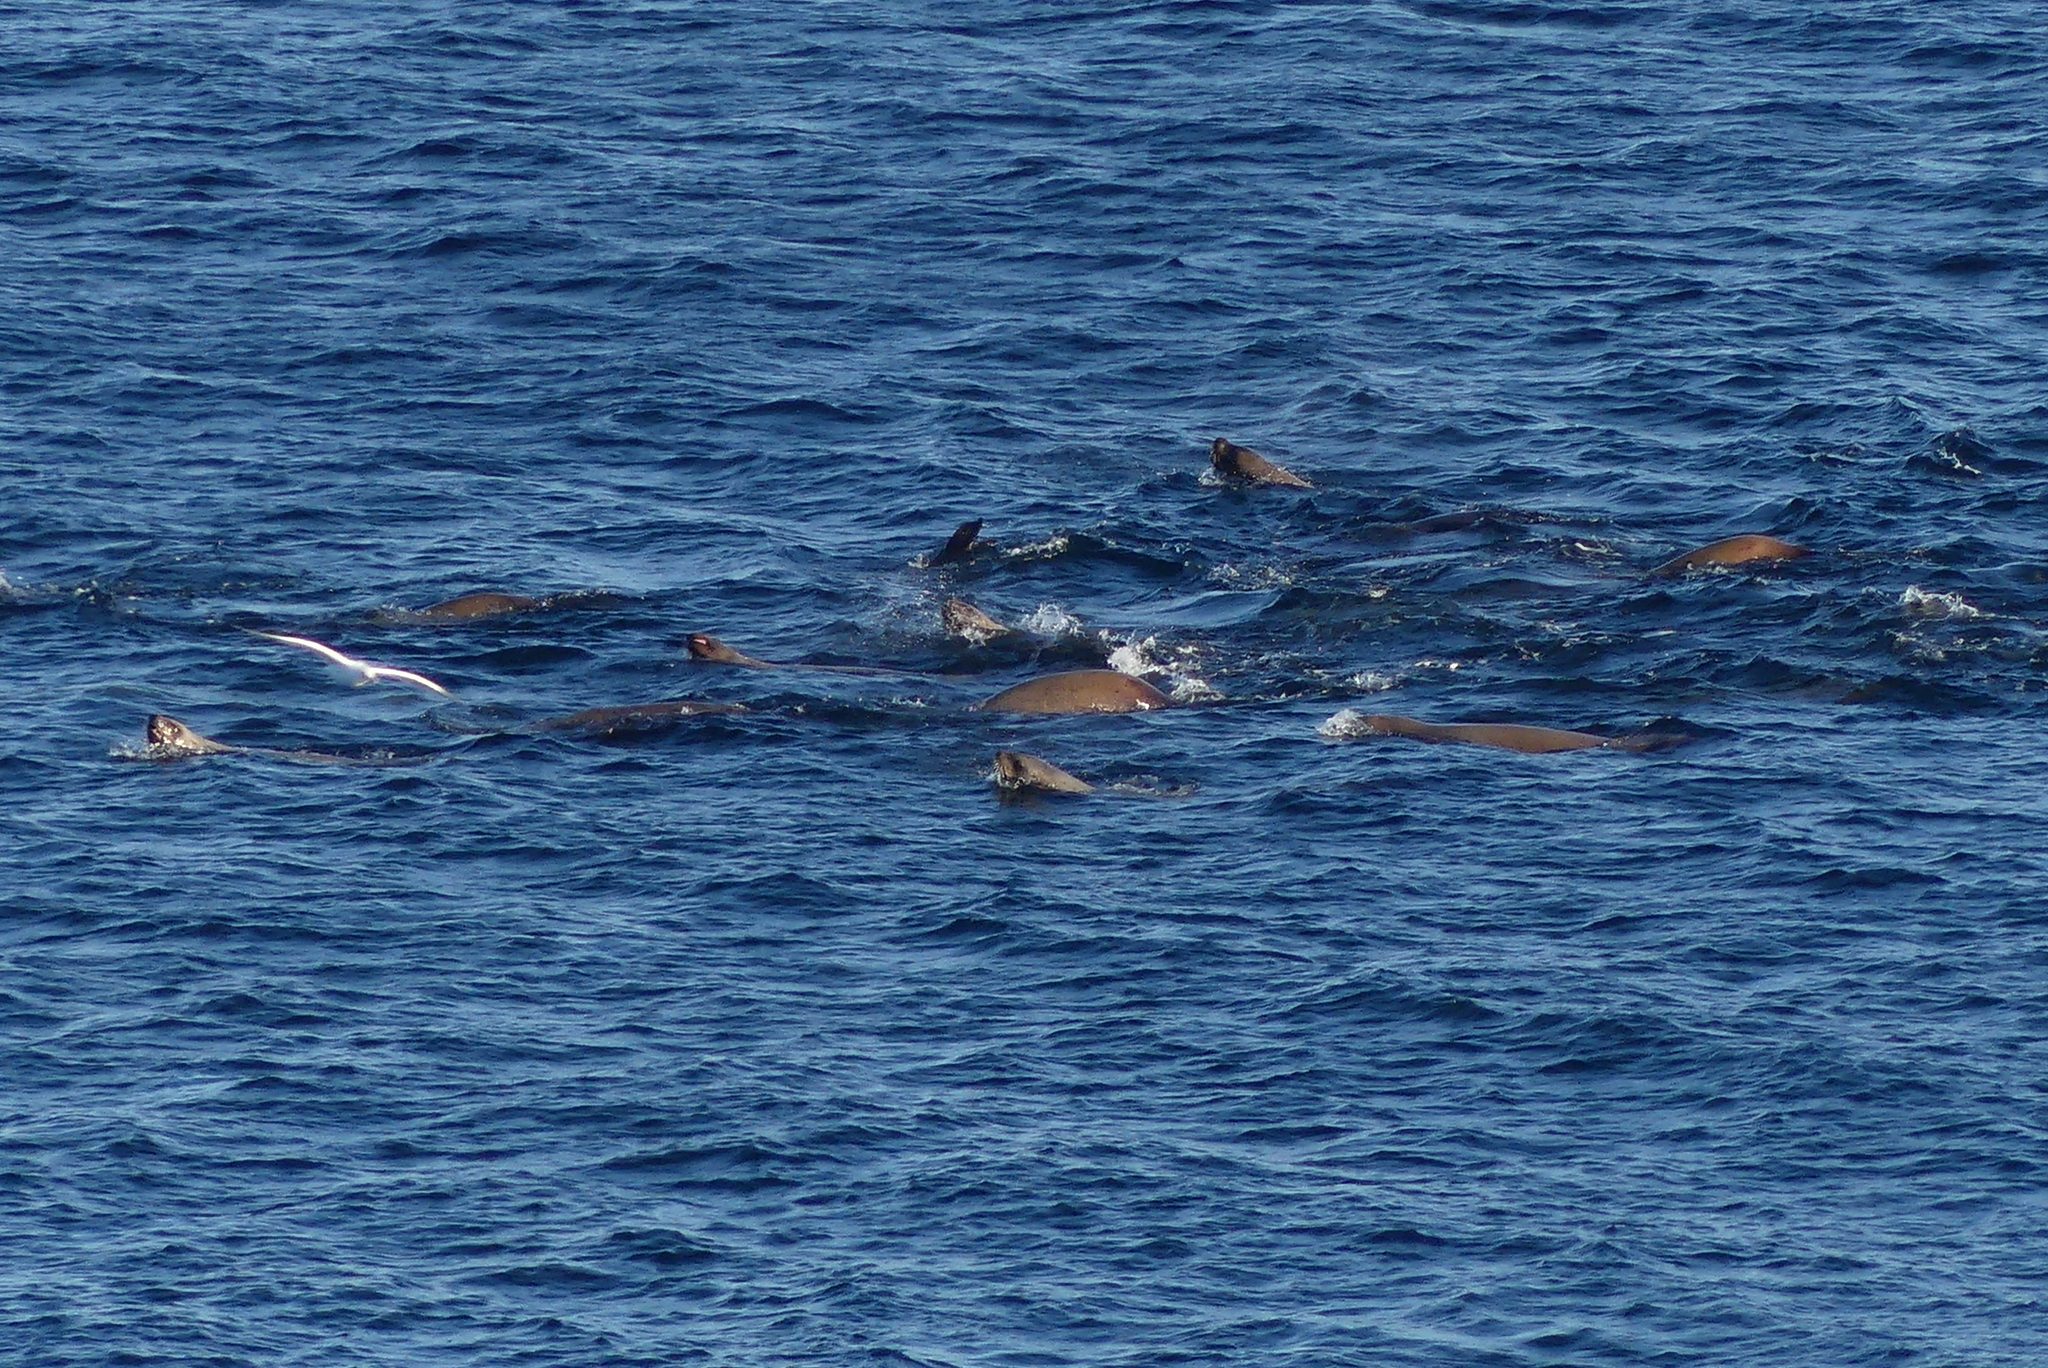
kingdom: Animalia
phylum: Chordata
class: Mammalia
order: Carnivora
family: Otariidae
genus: Eumetopias
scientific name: Eumetopias jubatus
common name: Steller sea lion
